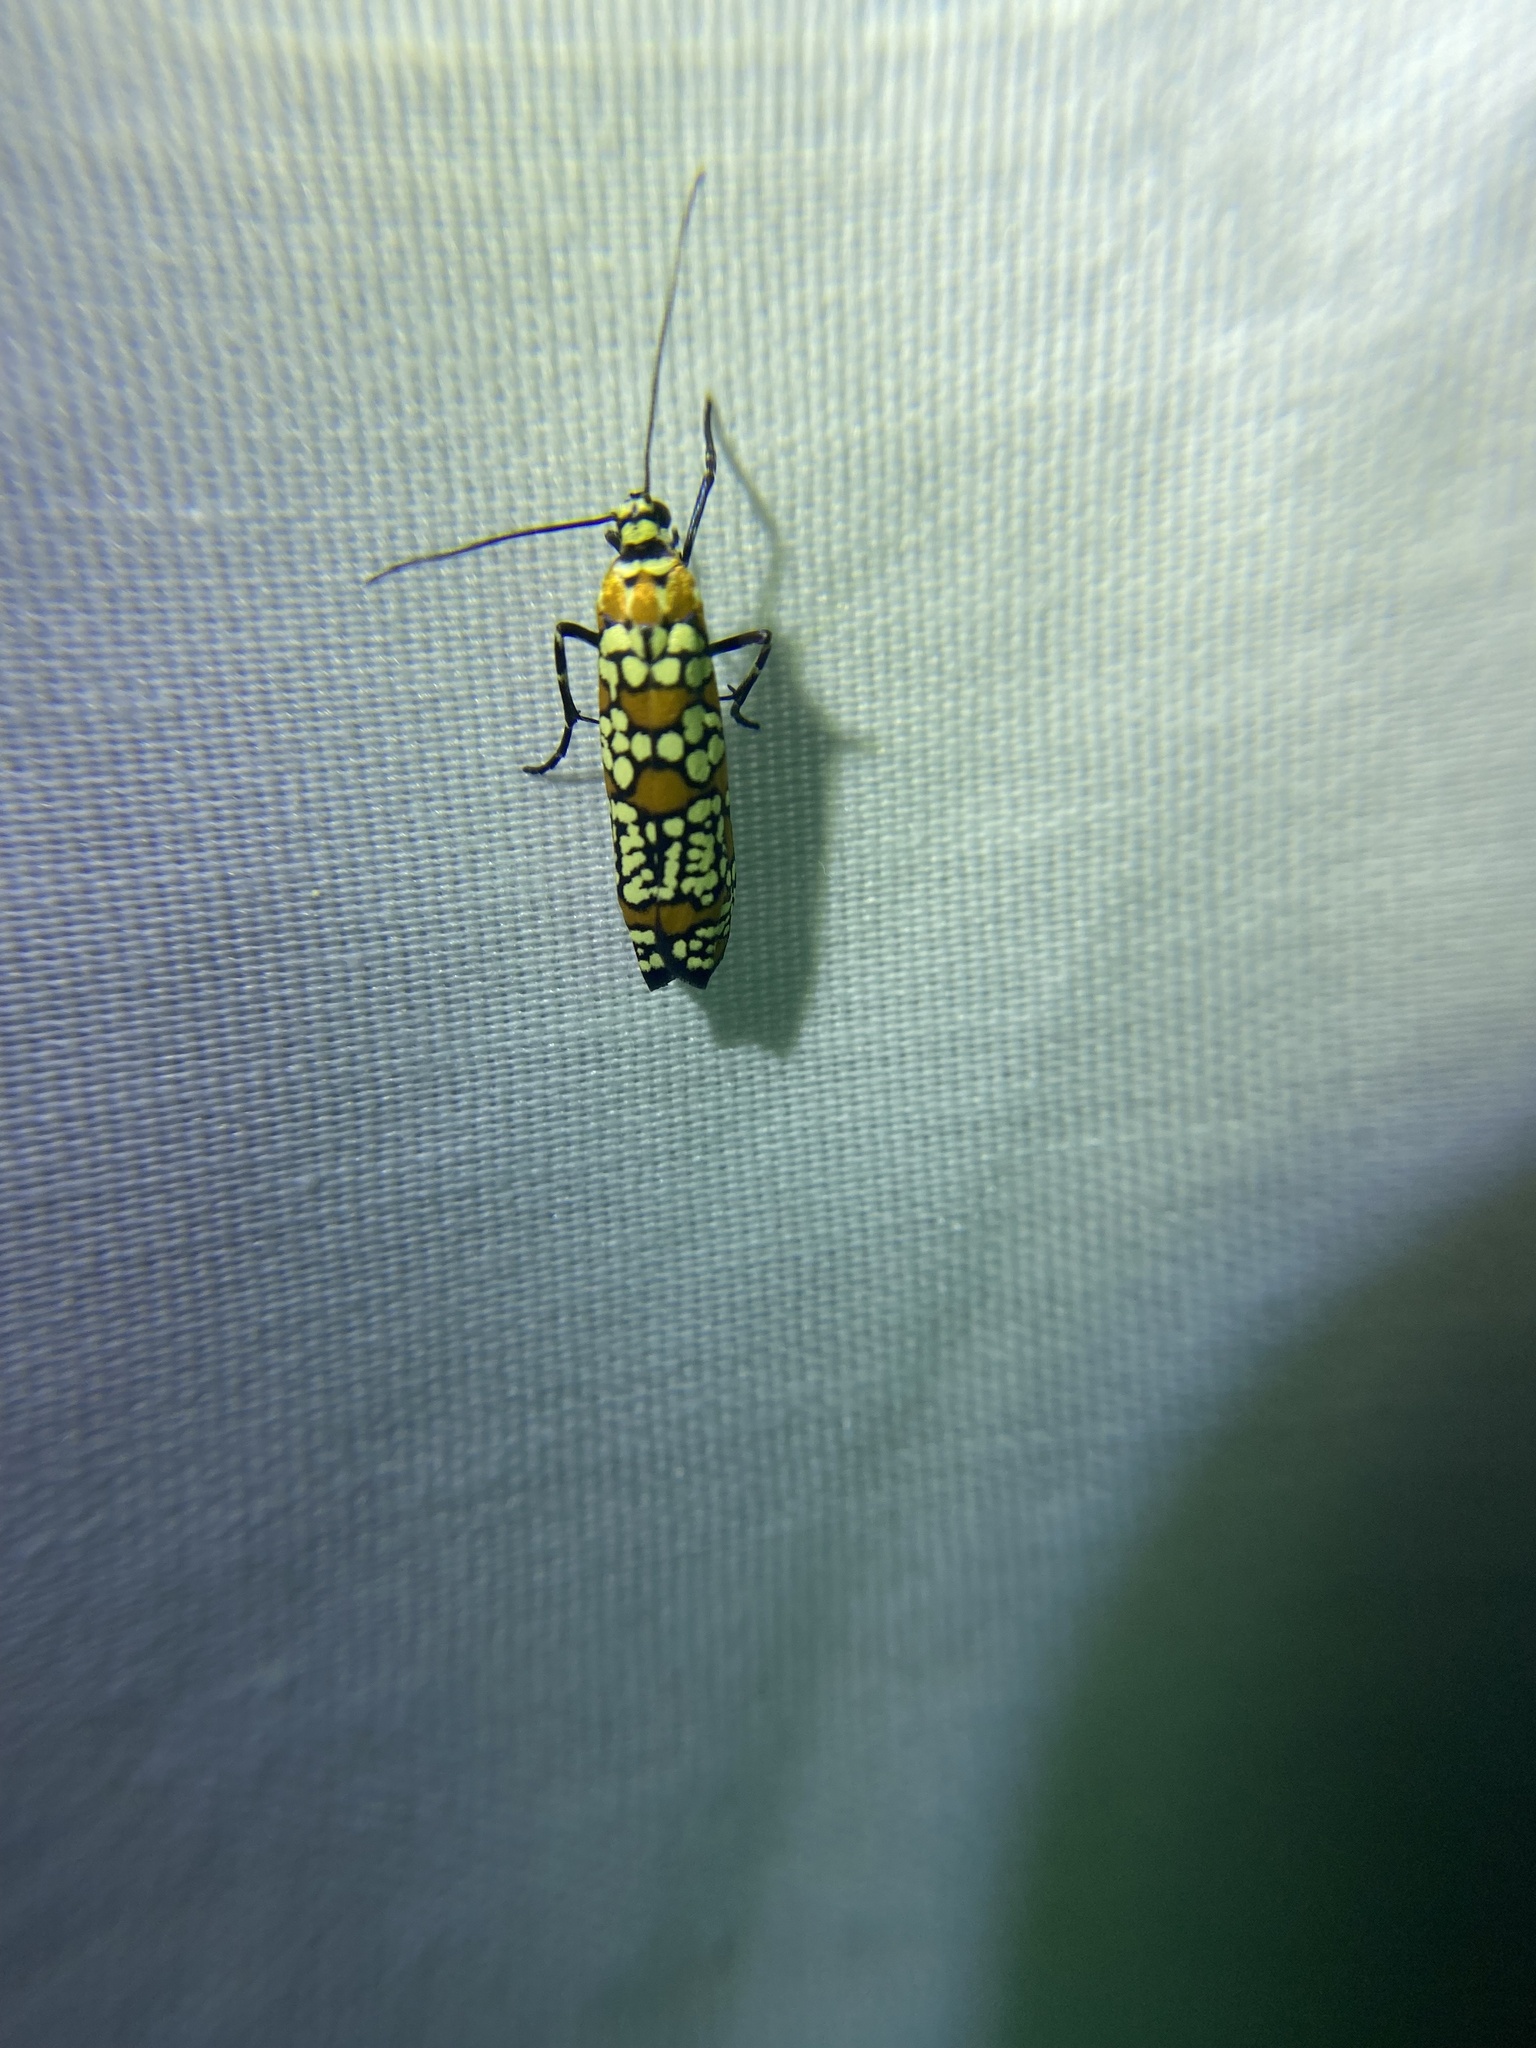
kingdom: Animalia
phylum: Arthropoda
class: Insecta
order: Lepidoptera
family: Attevidae
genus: Atteva
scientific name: Atteva punctella
